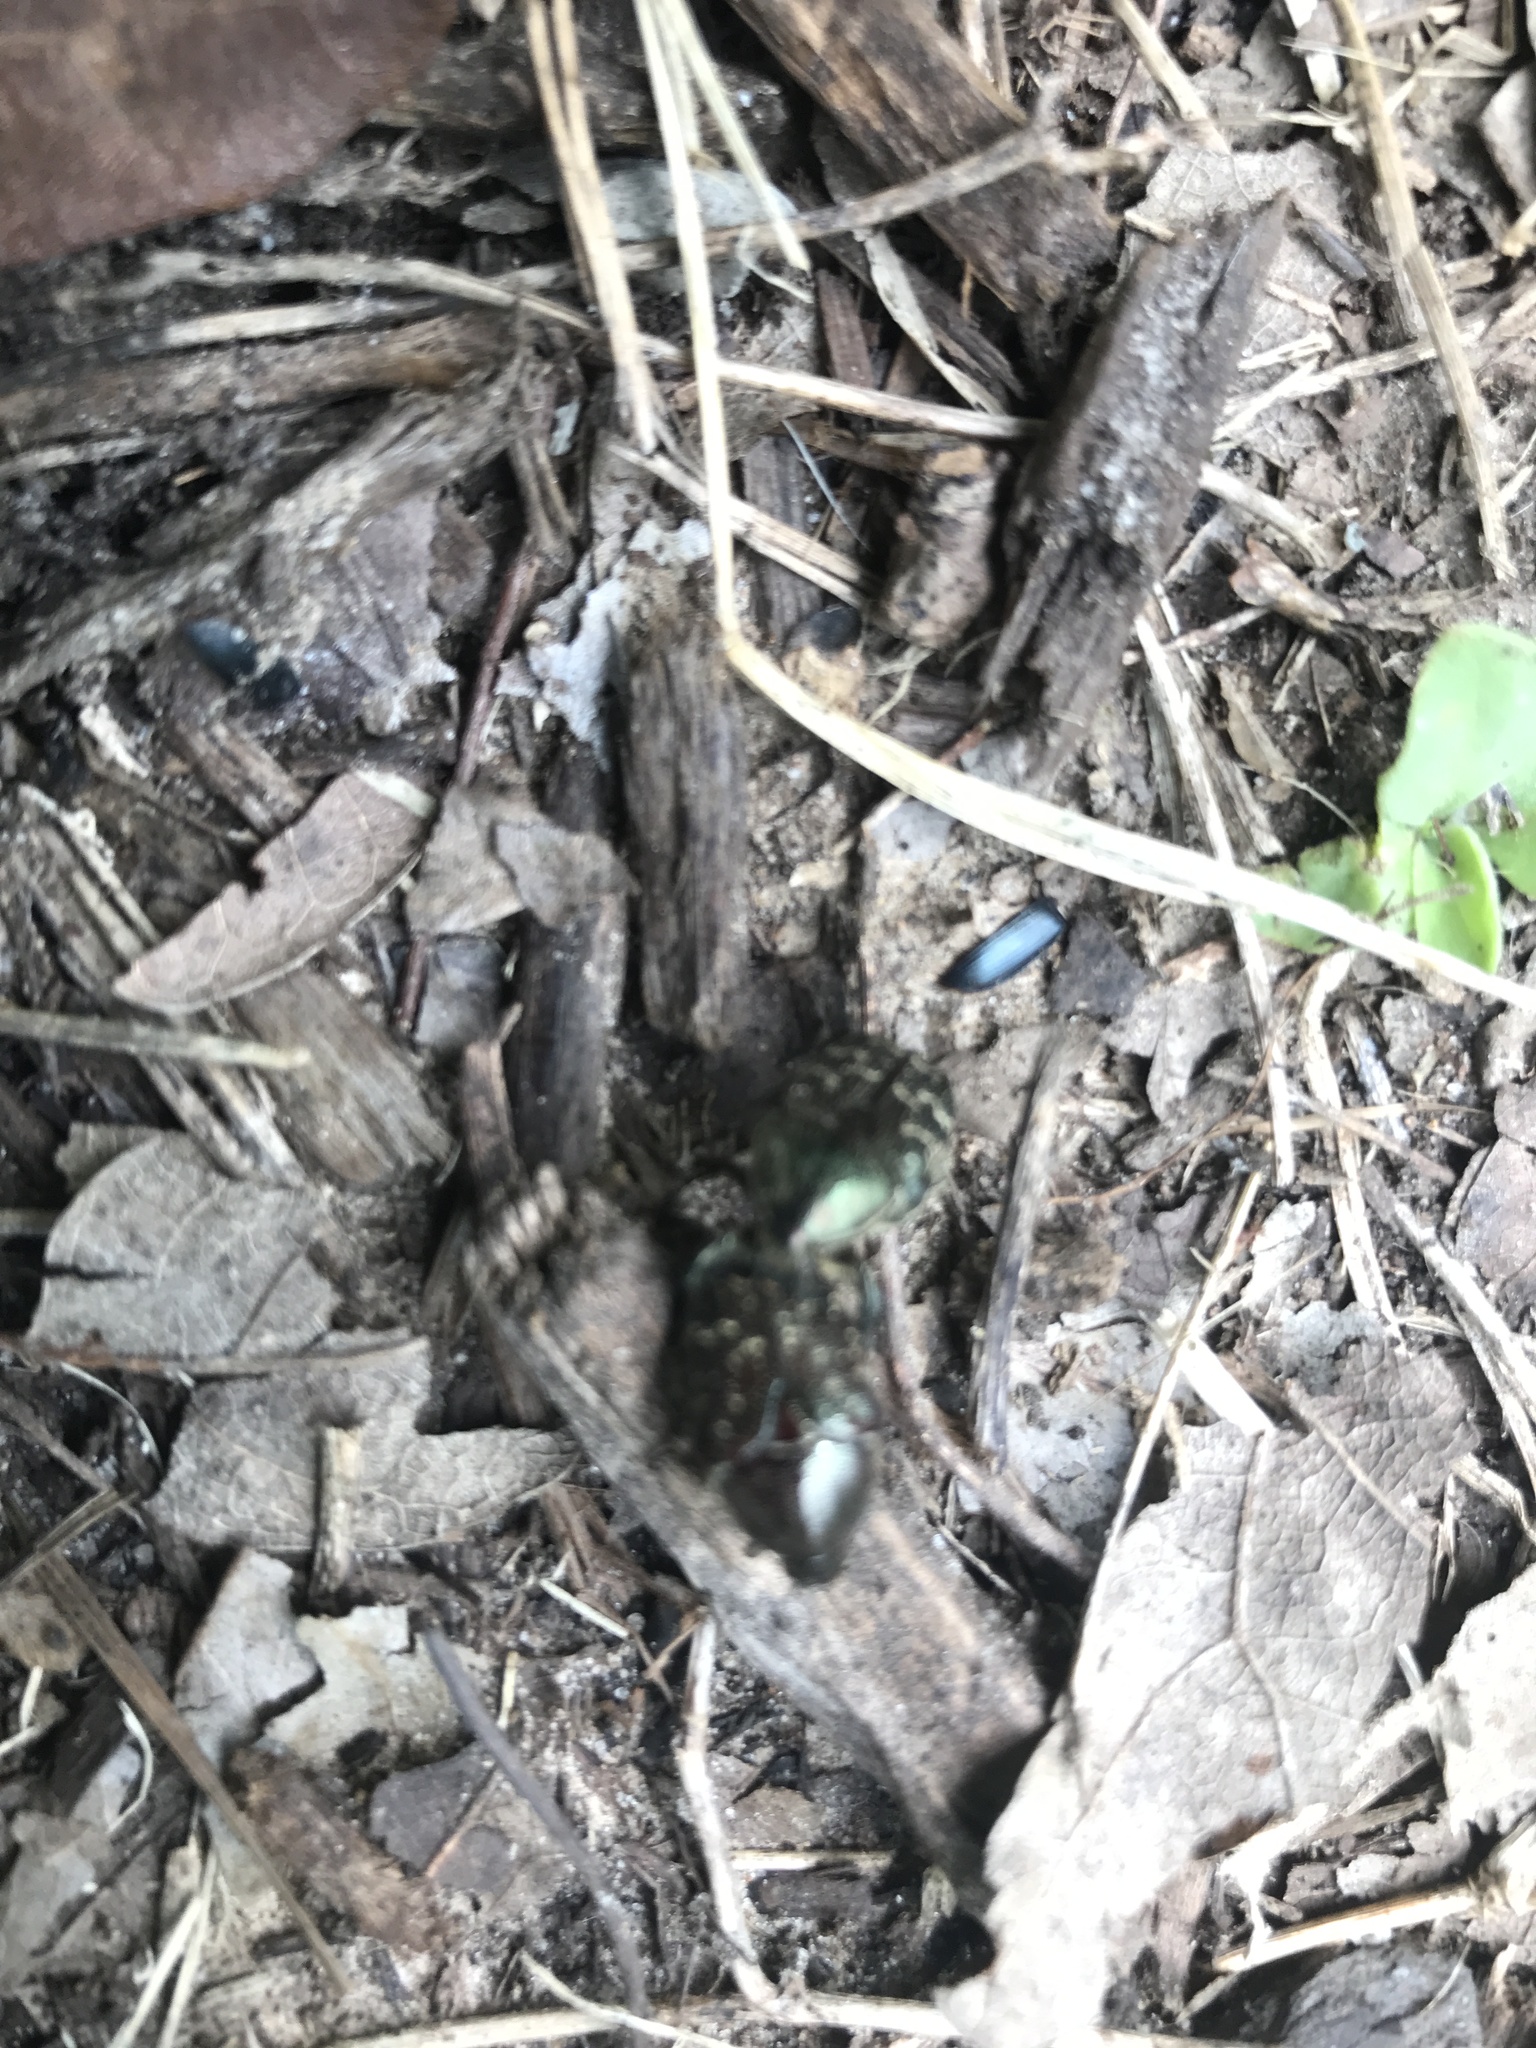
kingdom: Animalia
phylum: Arthropoda
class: Insecta
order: Coleoptera
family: Scarabaeidae
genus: Euphoria
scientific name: Euphoria sepulcralis
